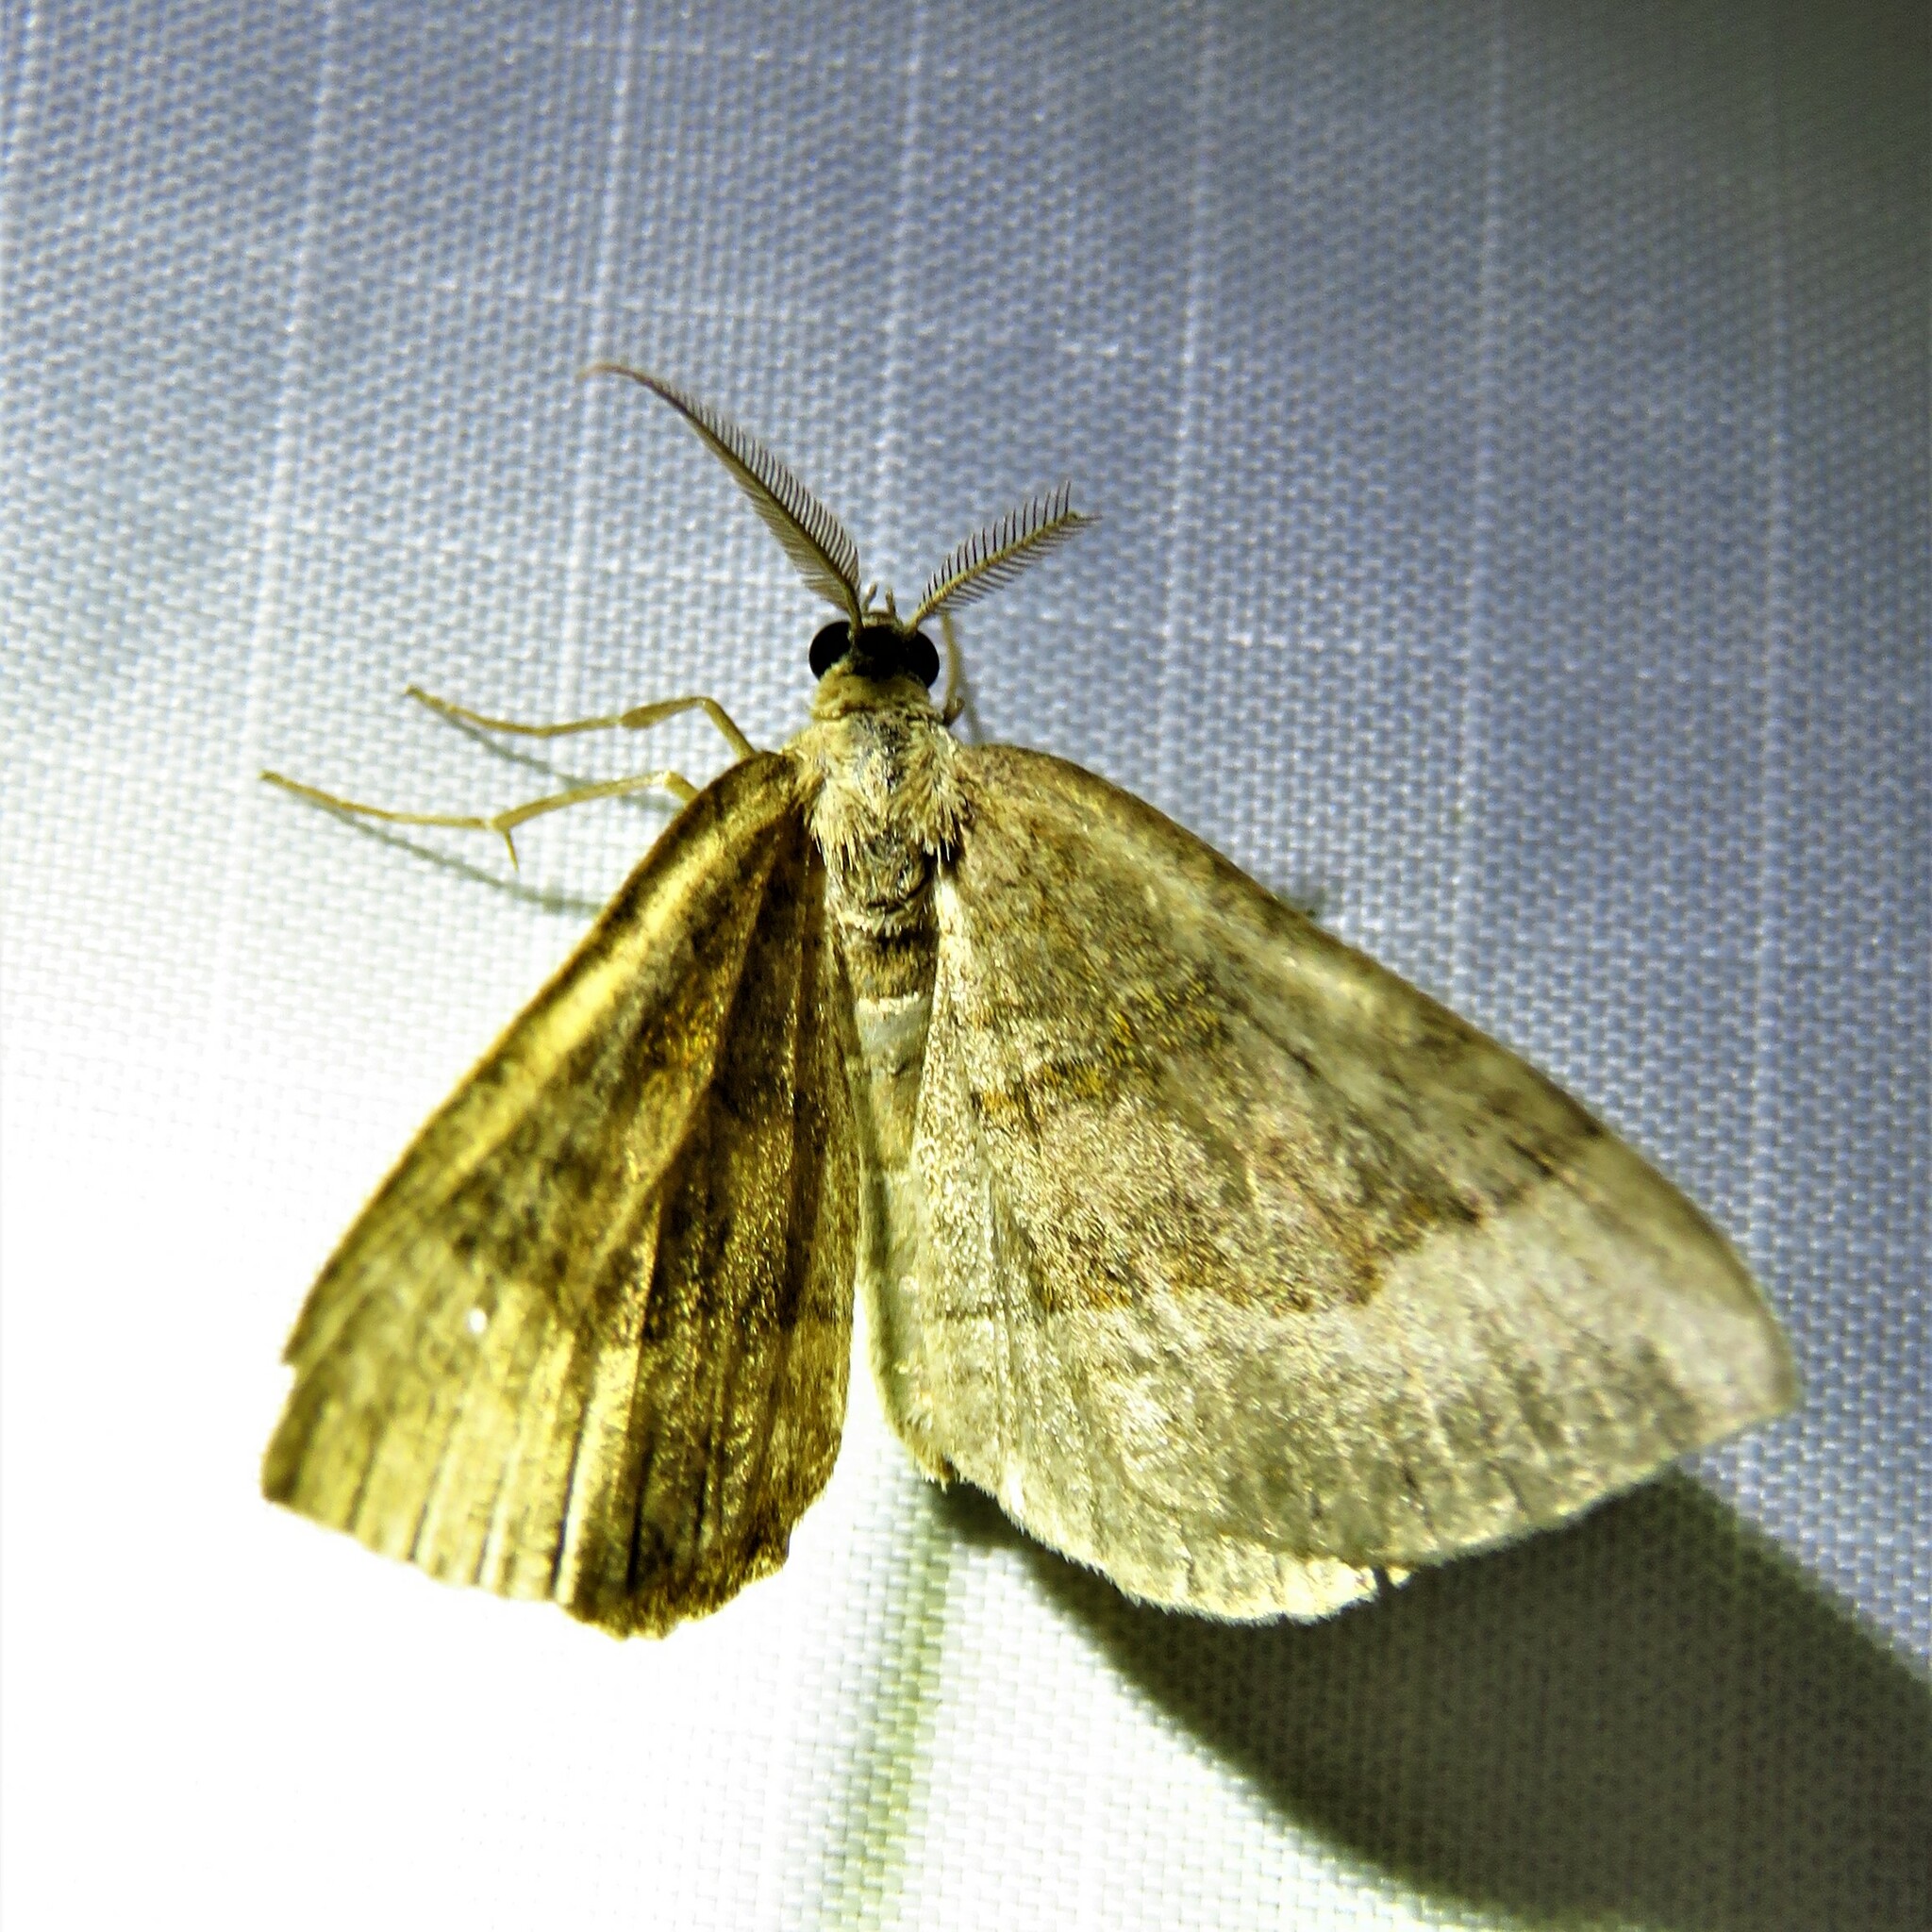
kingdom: Animalia
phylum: Arthropoda
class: Insecta
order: Lepidoptera
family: Geometridae
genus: Scotopteryx
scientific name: Scotopteryx chenopodiata
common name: Shaded broad-bar
